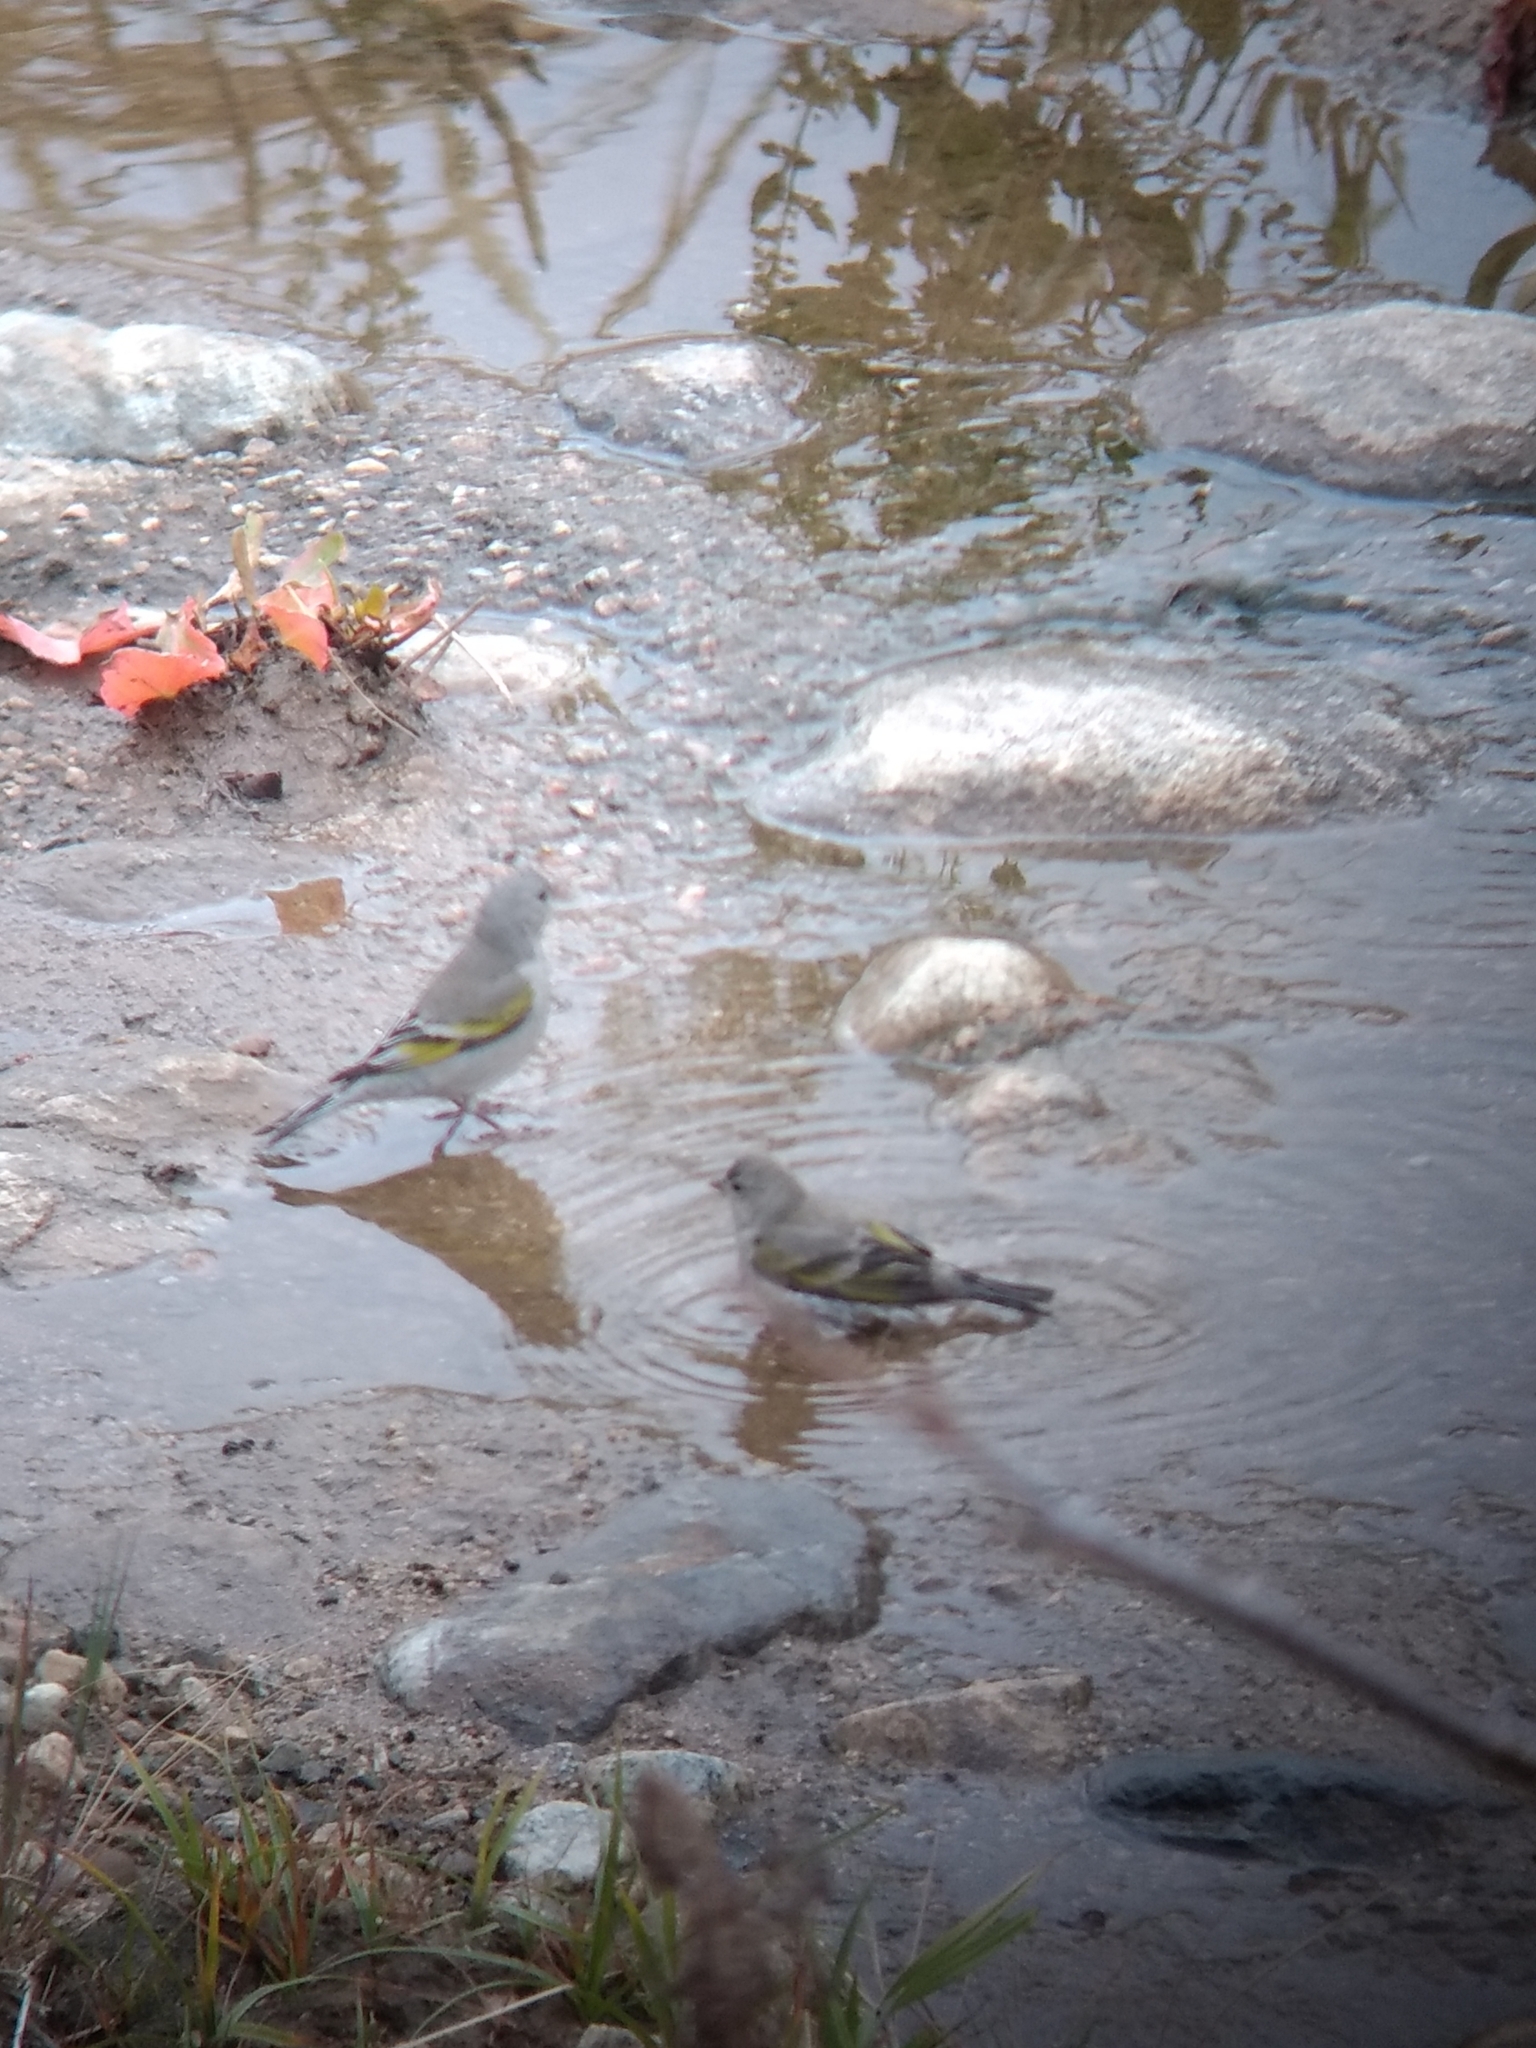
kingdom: Animalia
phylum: Chordata
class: Aves
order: Passeriformes
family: Fringillidae
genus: Spinus
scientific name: Spinus lawrencei
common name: Lawrence's goldfinch
